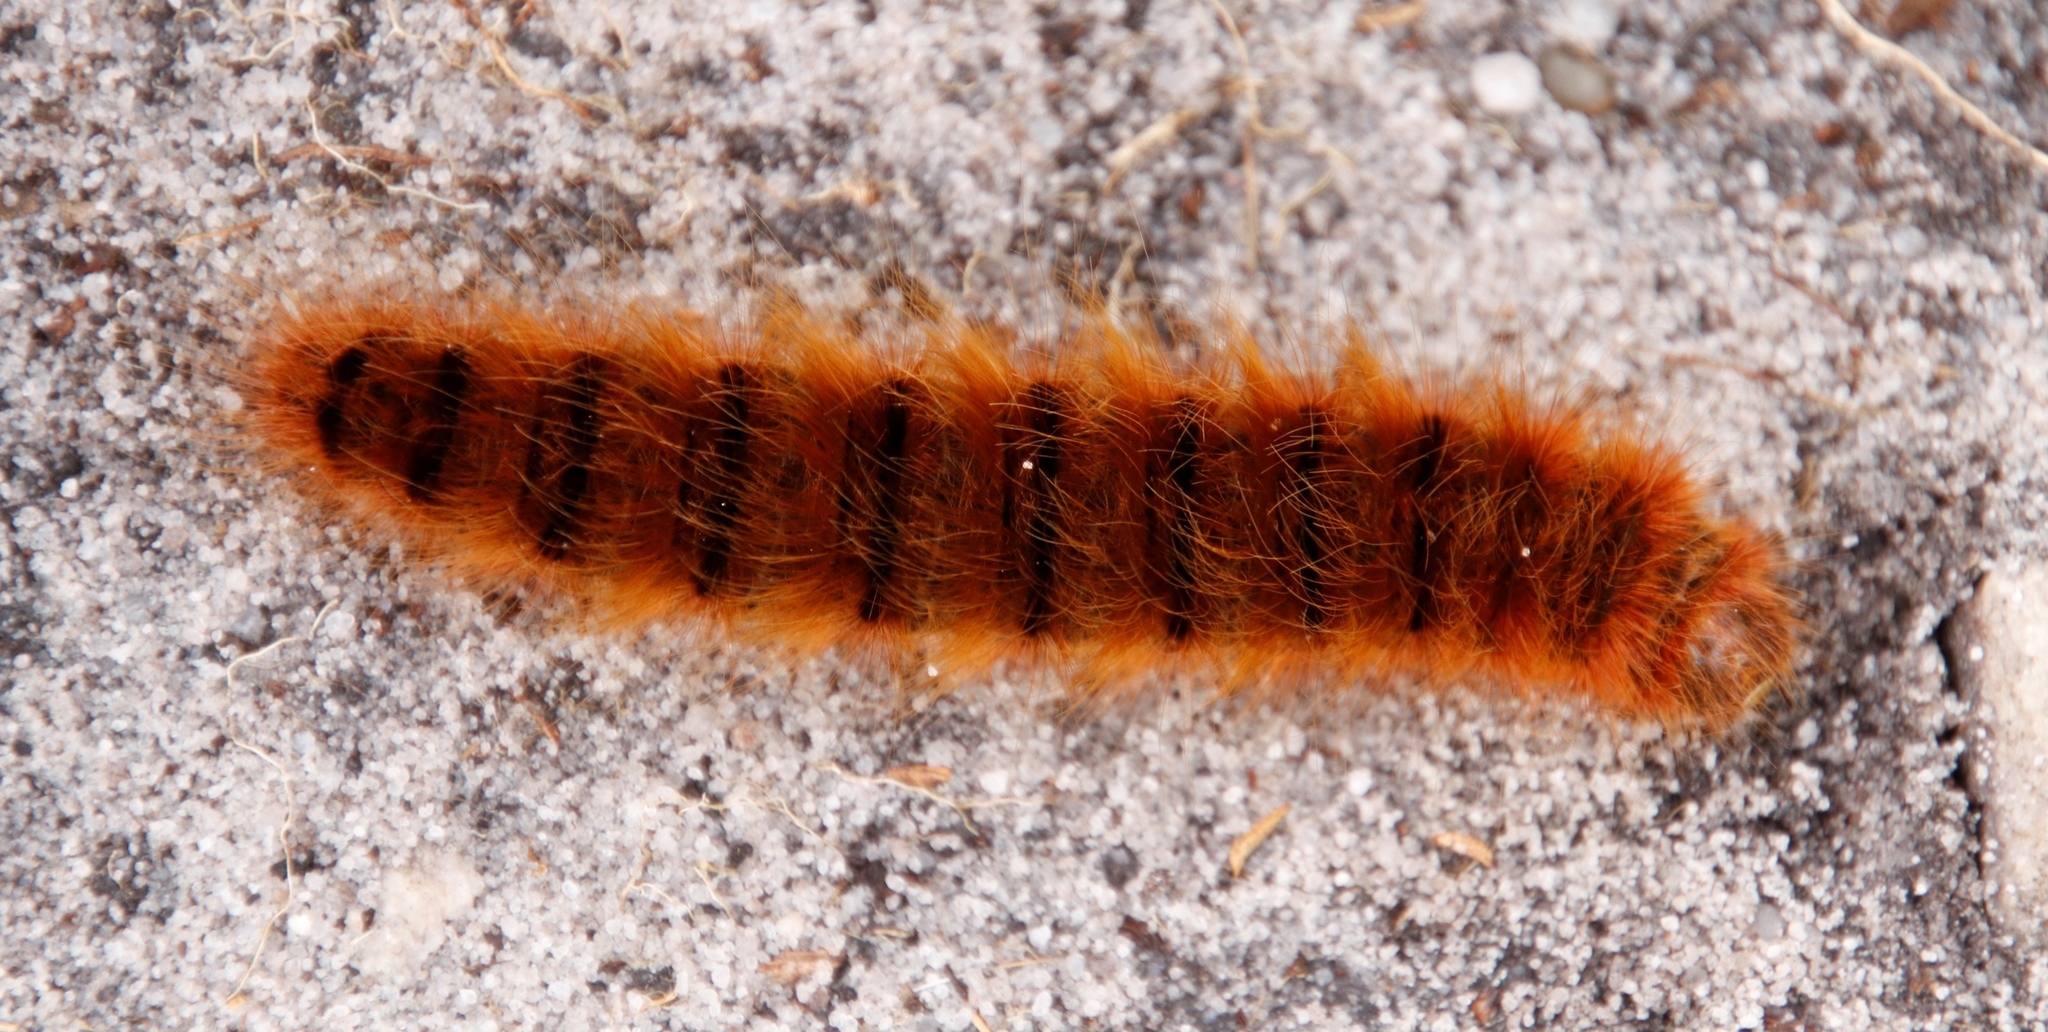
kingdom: Animalia
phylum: Arthropoda
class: Insecta
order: Lepidoptera
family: Eupterotidae
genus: Phyllalia
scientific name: Phyllalia patens
